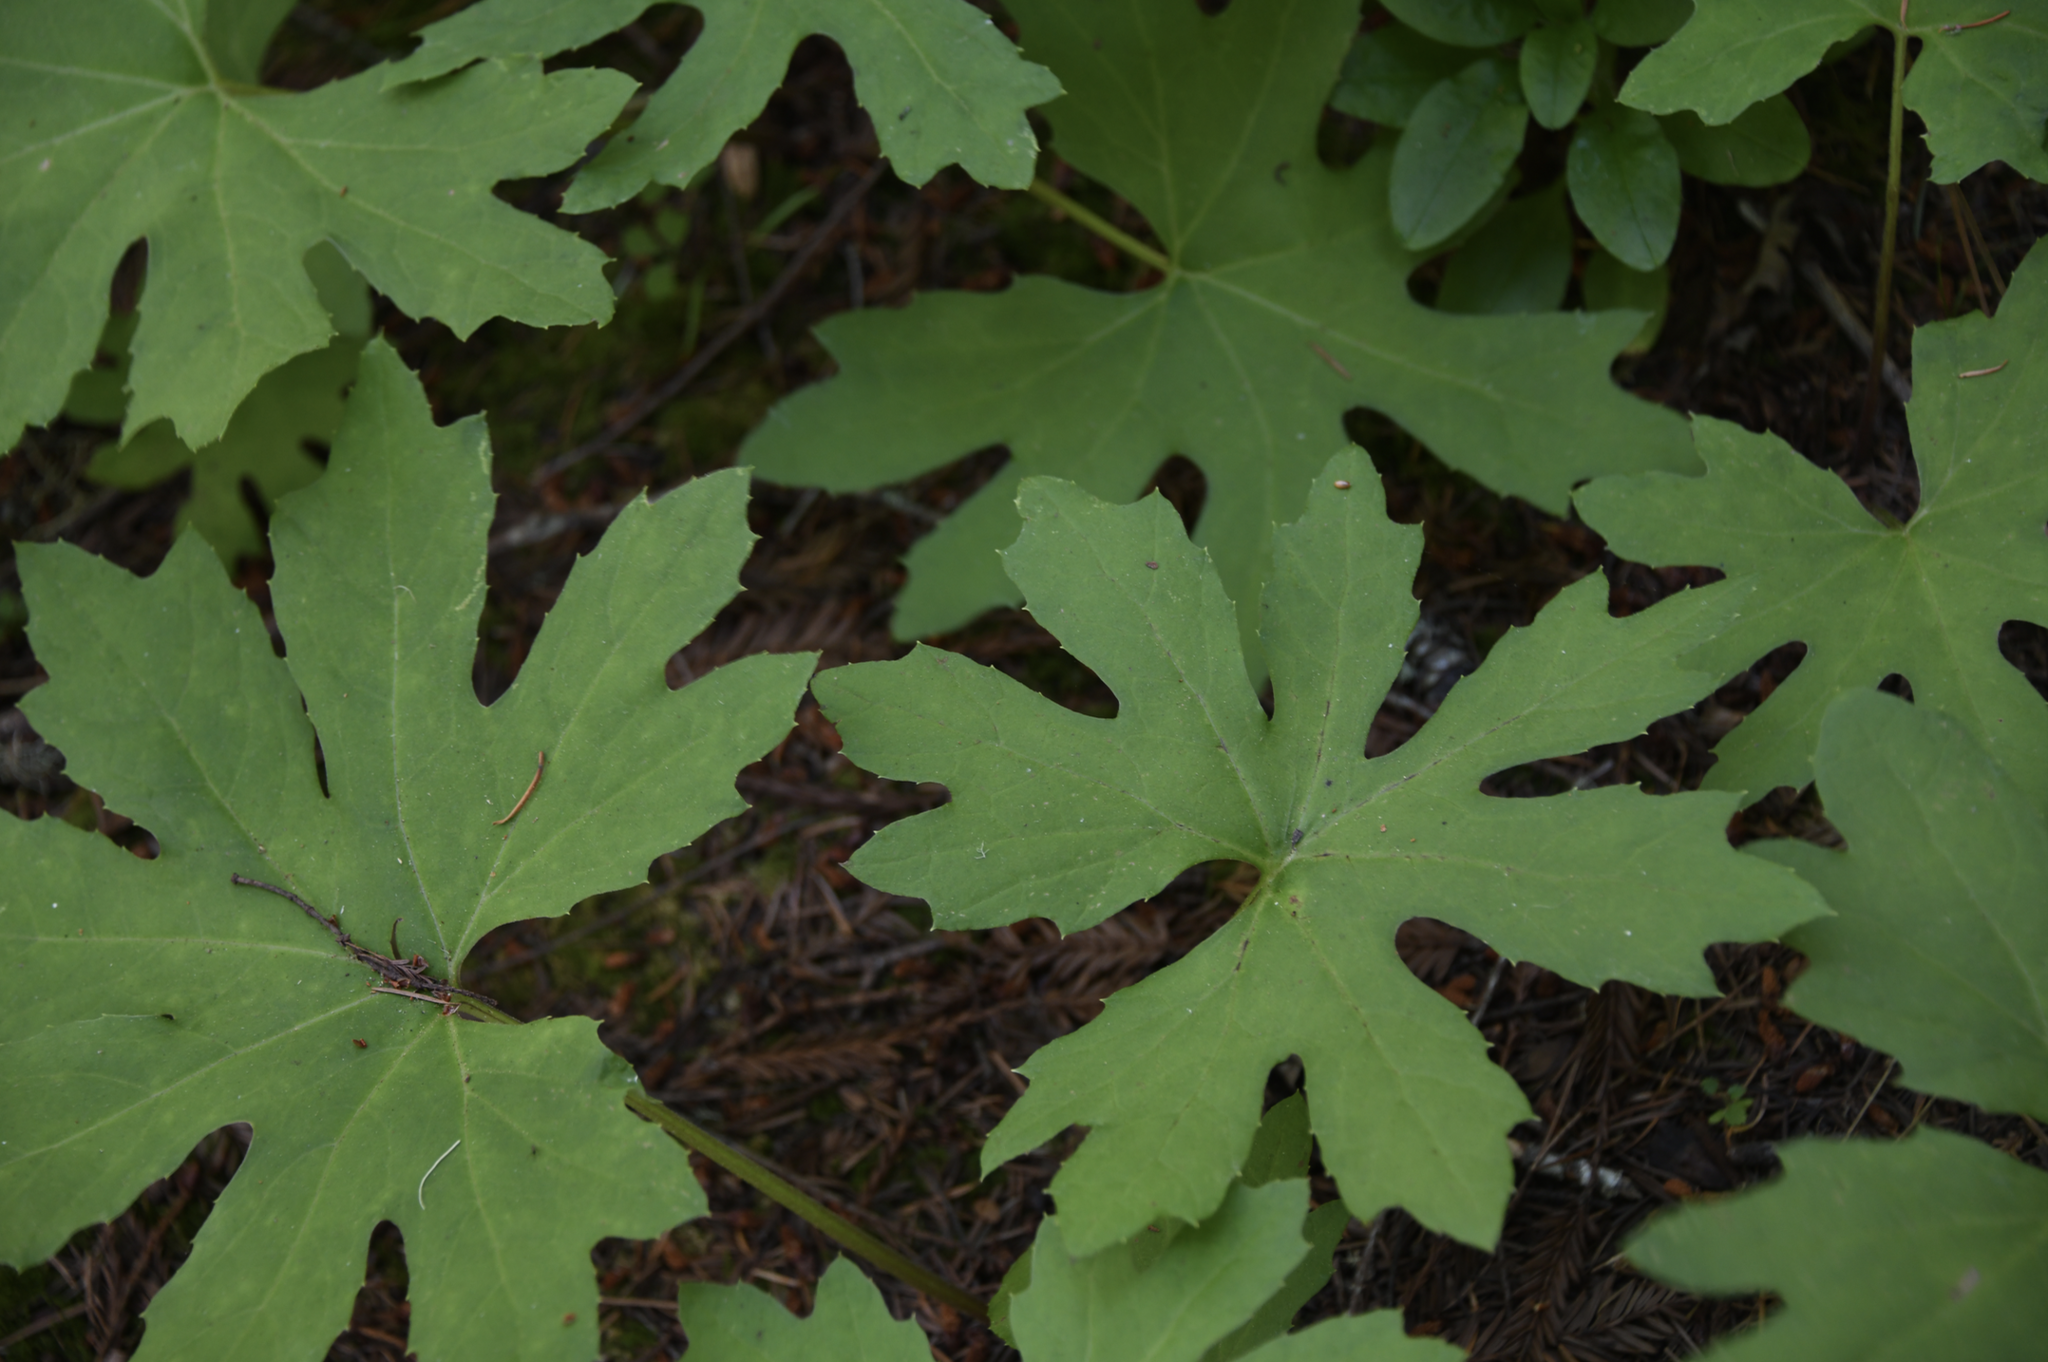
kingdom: Plantae
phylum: Tracheophyta
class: Magnoliopsida
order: Asterales
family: Asteraceae
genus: Petasites
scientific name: Petasites frigidus
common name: Arctic butterbur
